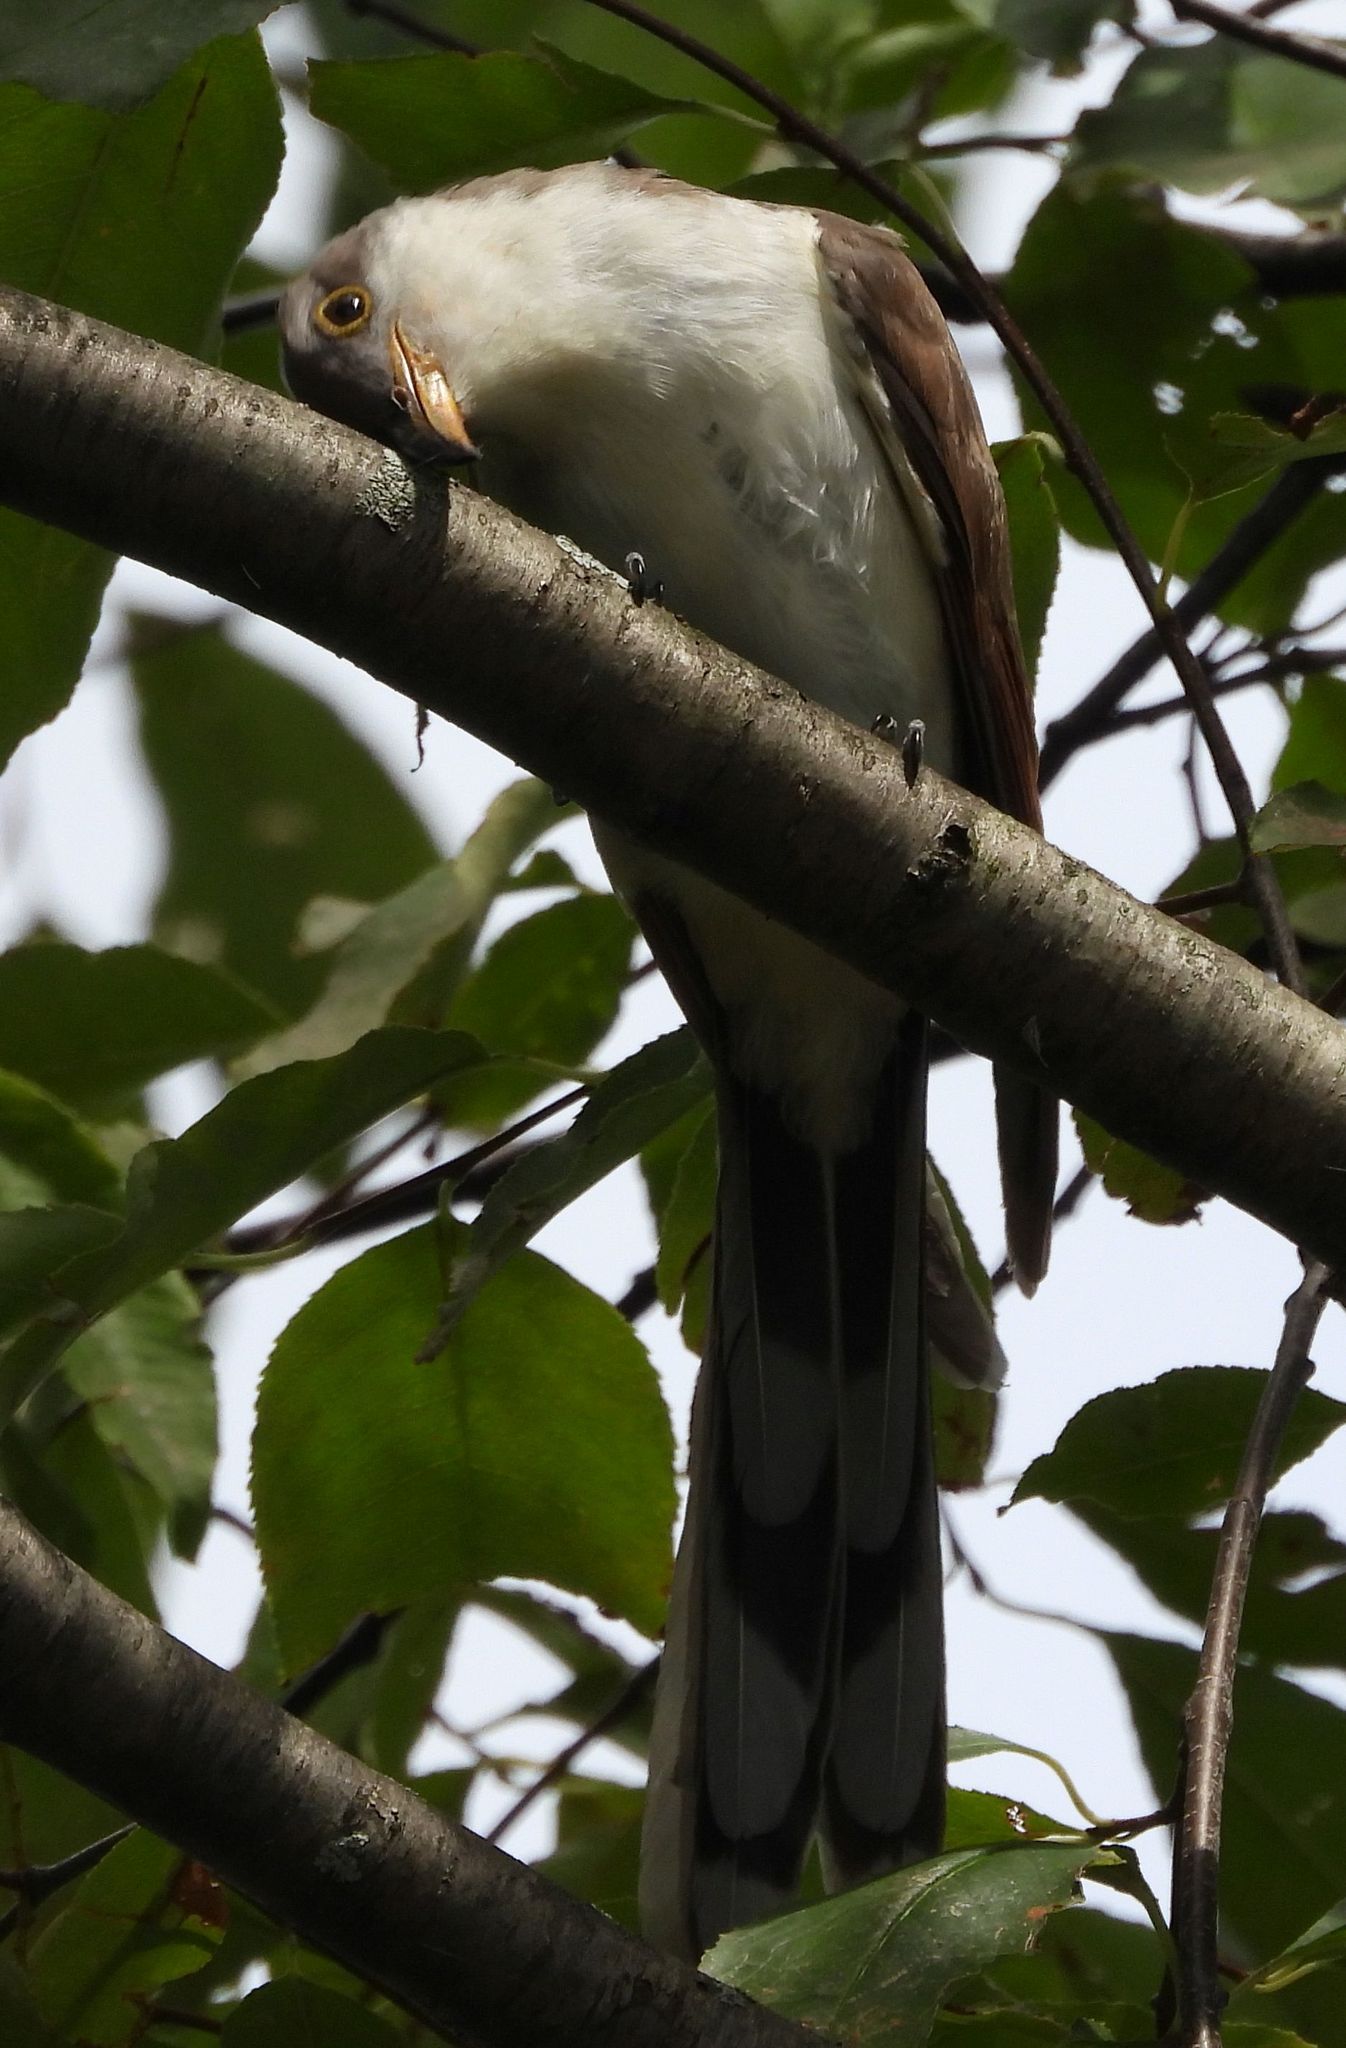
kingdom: Animalia
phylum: Chordata
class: Aves
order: Cuculiformes
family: Cuculidae
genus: Coccyzus
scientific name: Coccyzus americanus
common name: Yellow-billed cuckoo
